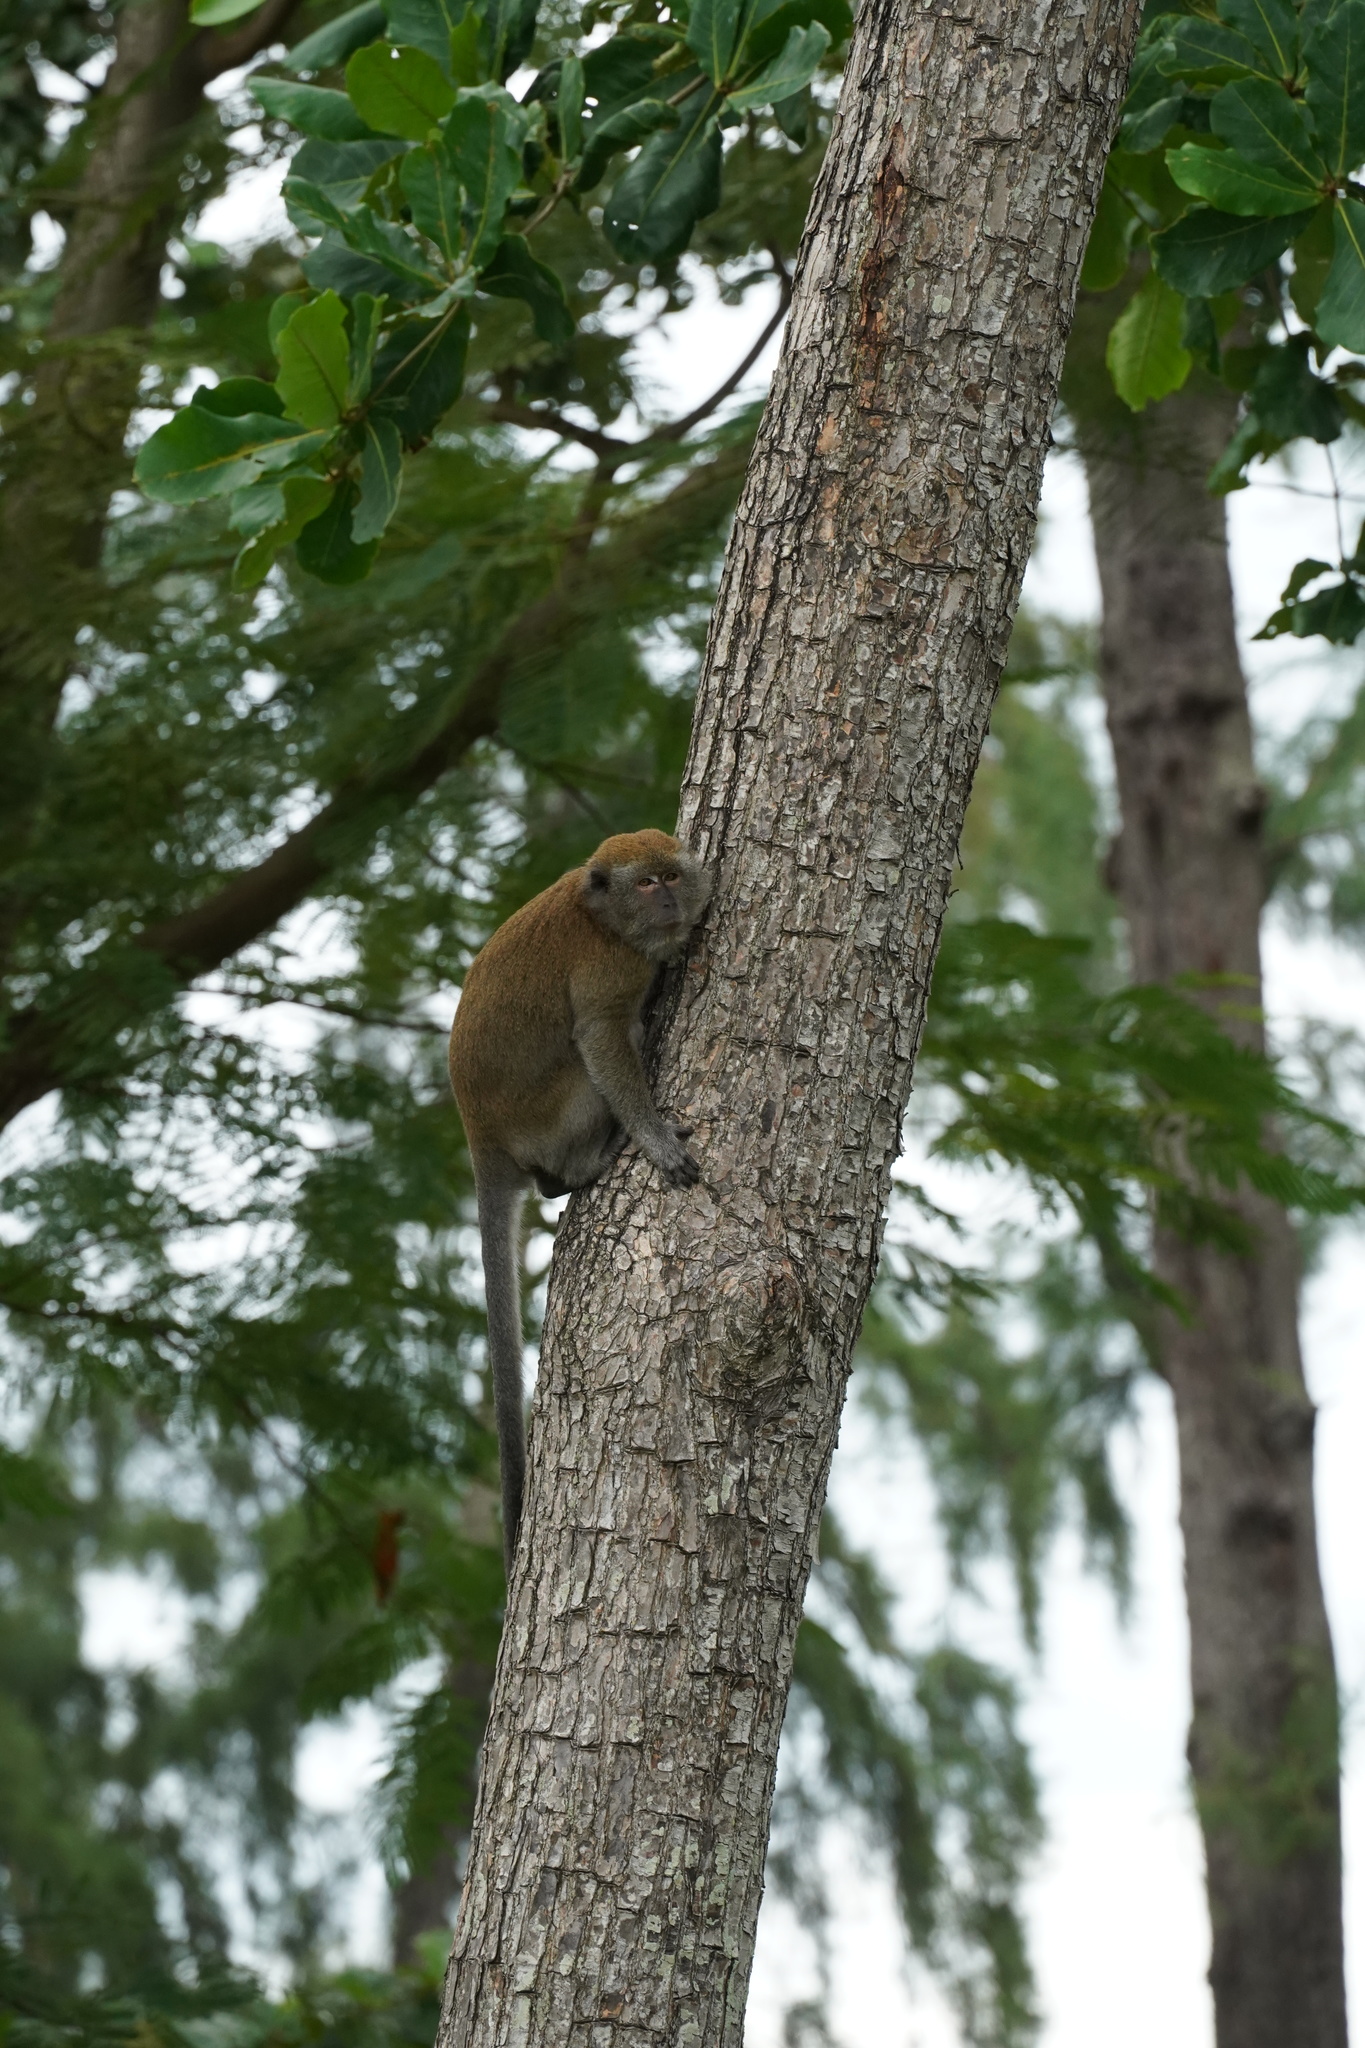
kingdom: Animalia
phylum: Chordata
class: Mammalia
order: Primates
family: Cercopithecidae
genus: Macaca
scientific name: Macaca fascicularis
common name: Crab-eating macaque
